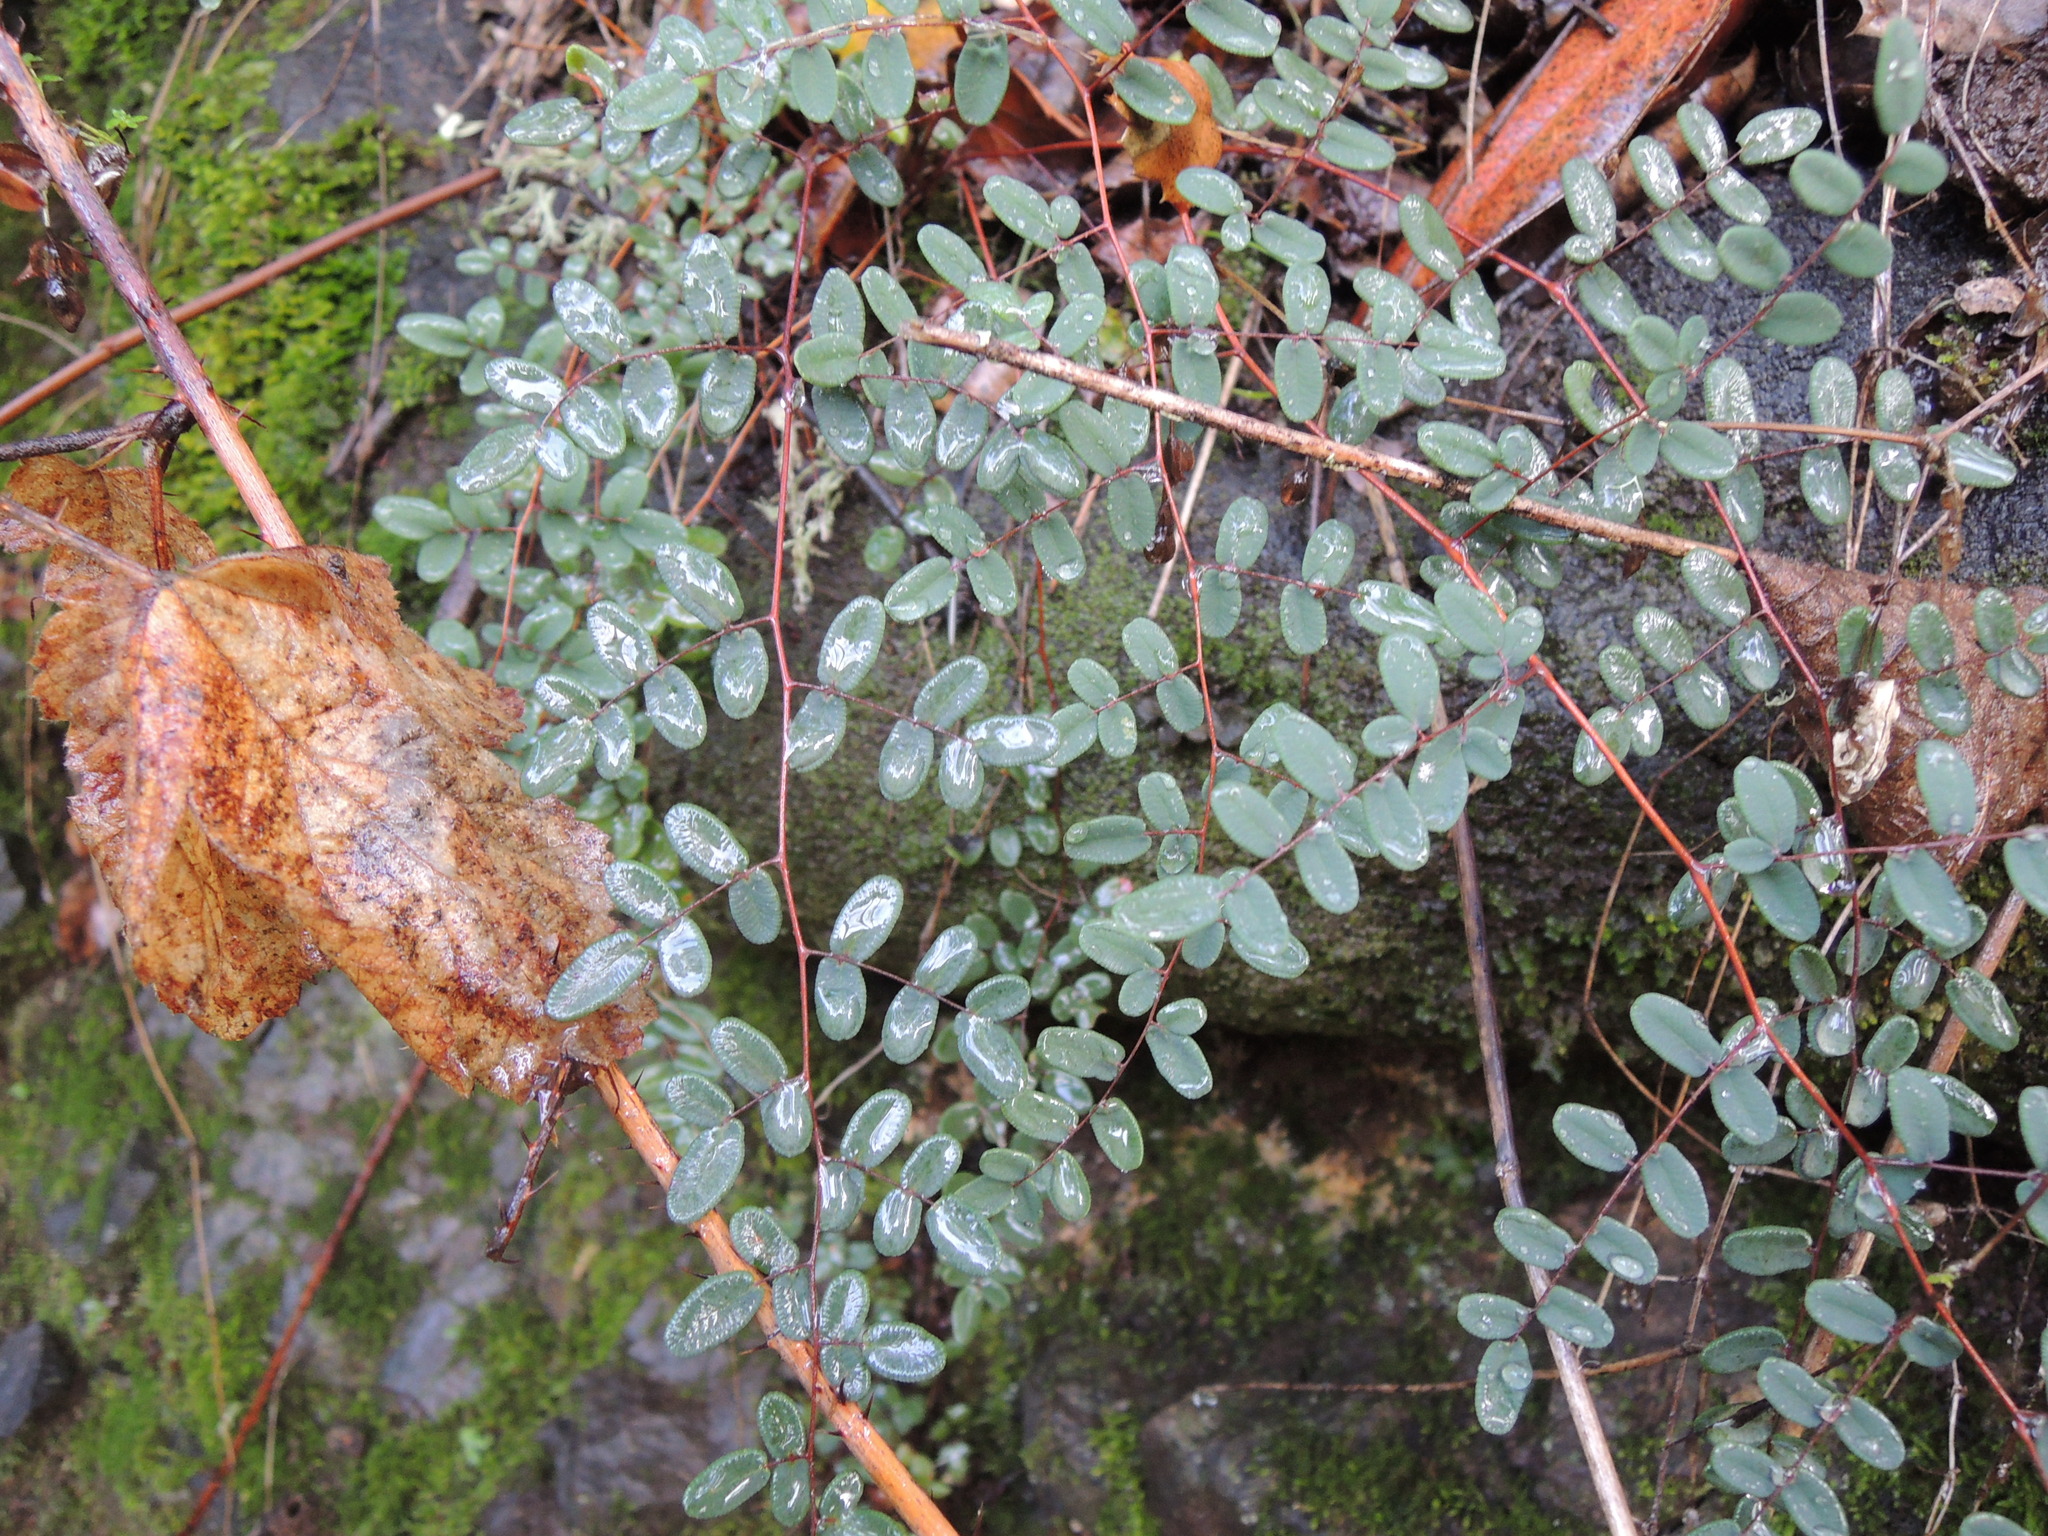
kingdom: Plantae
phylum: Tracheophyta
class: Polypodiopsida
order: Polypodiales
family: Pteridaceae
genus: Pellaea
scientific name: Pellaea andromedifolia
